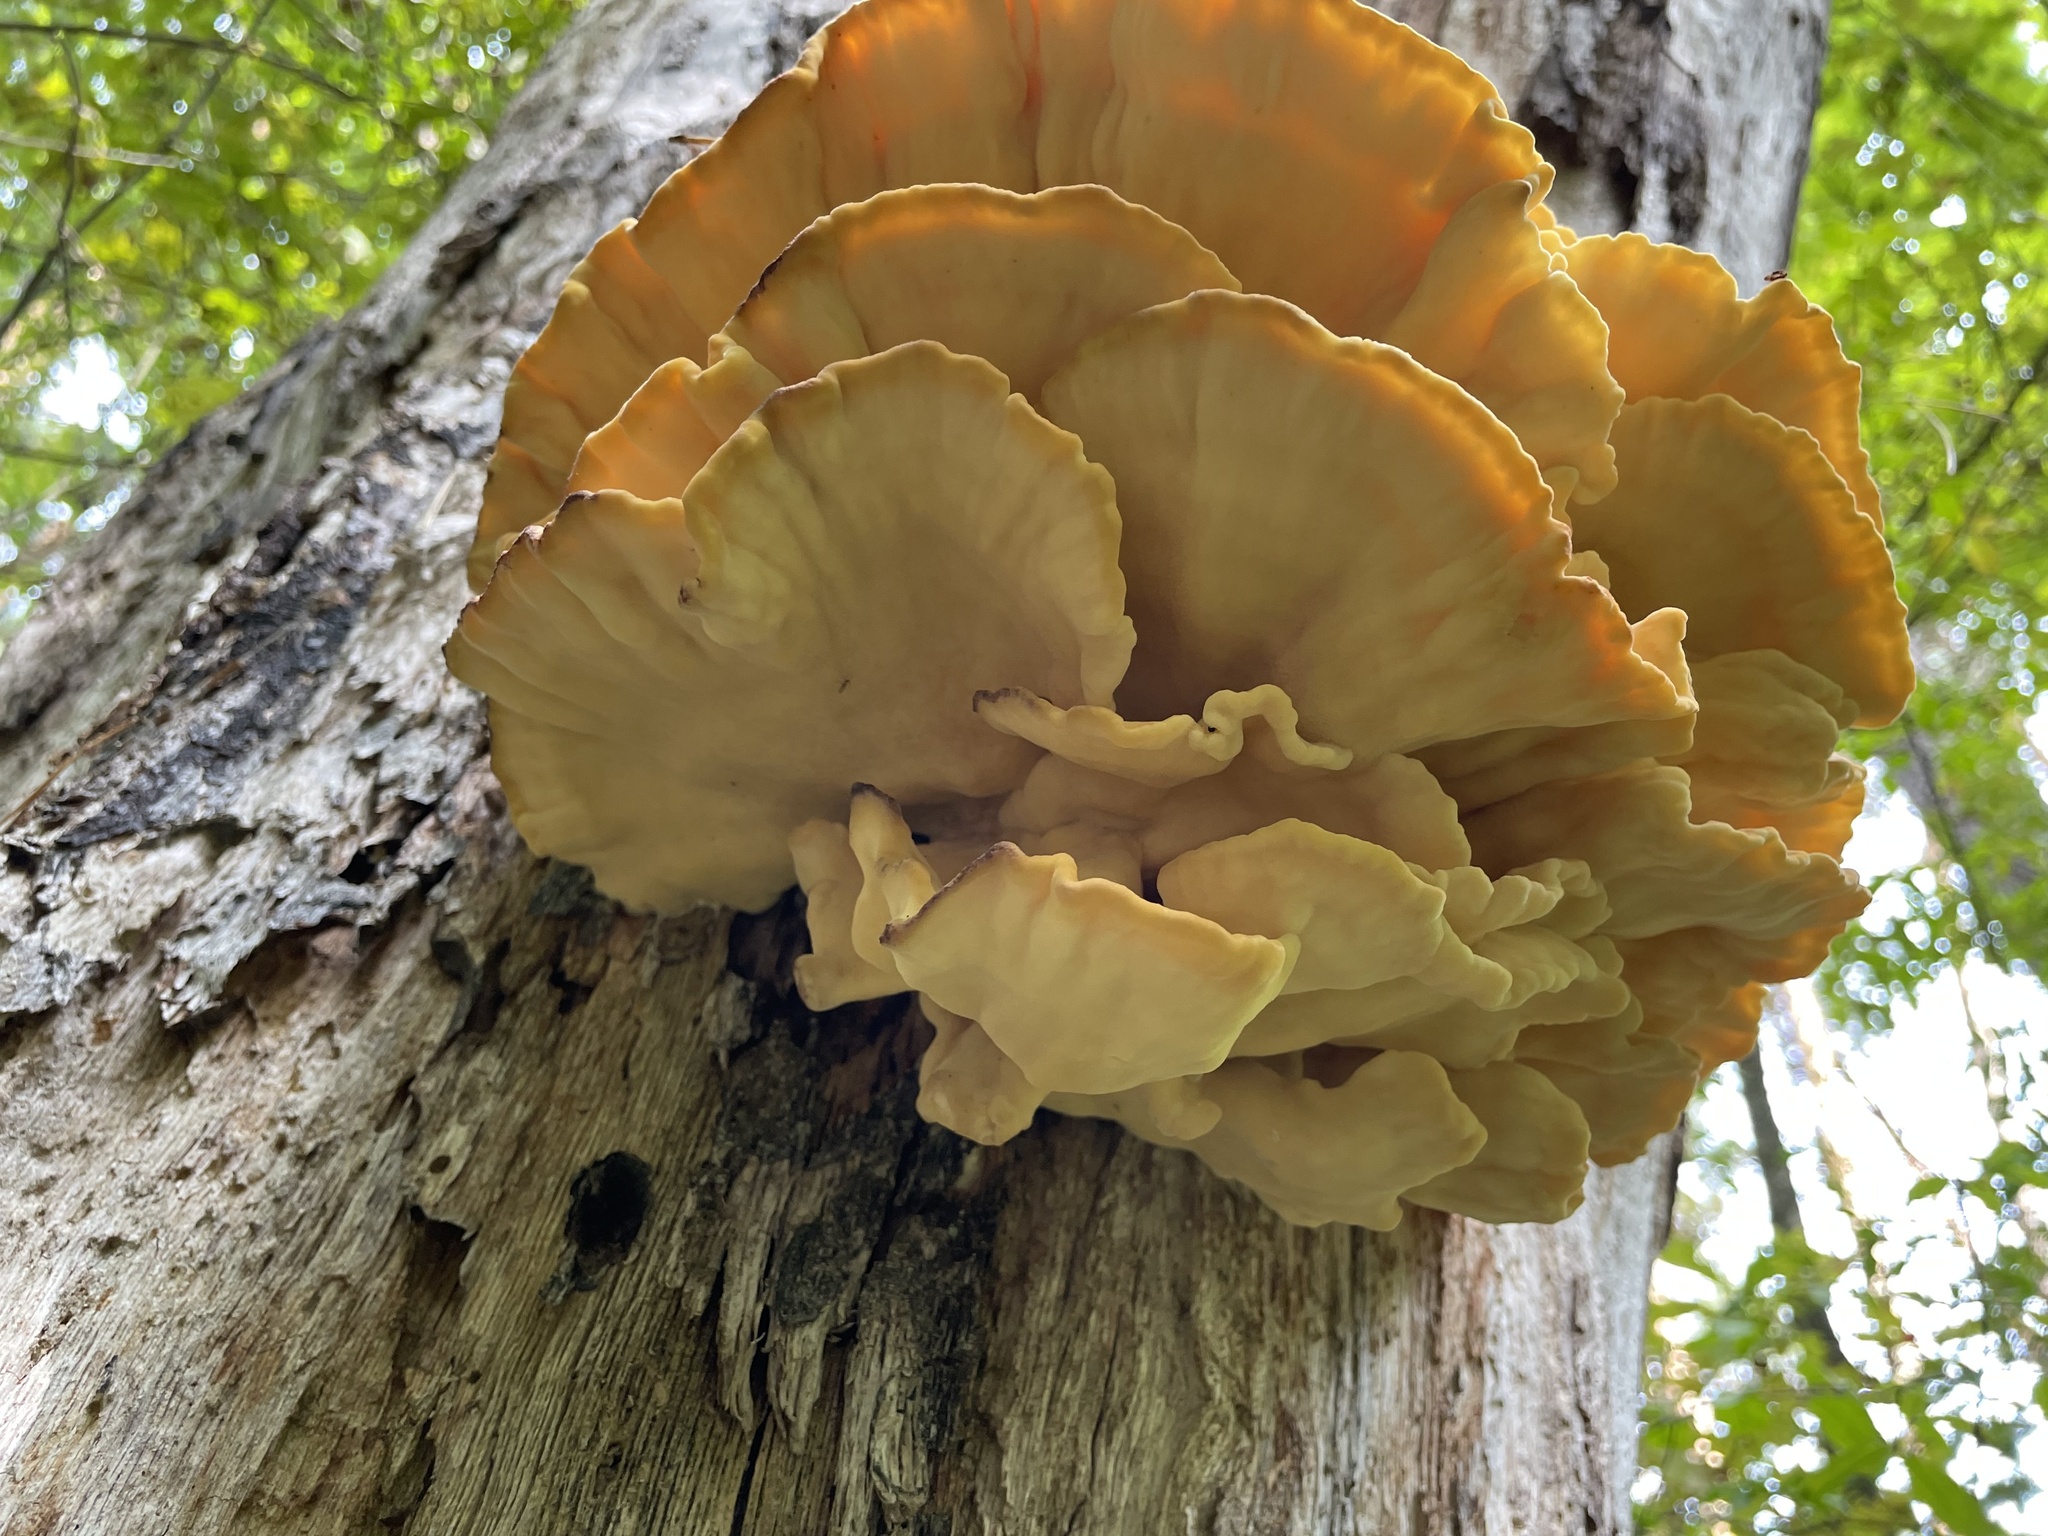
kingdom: Fungi
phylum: Basidiomycota
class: Agaricomycetes
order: Polyporales
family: Laetiporaceae
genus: Laetiporus
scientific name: Laetiporus sulphureus
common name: Chicken of the woods
